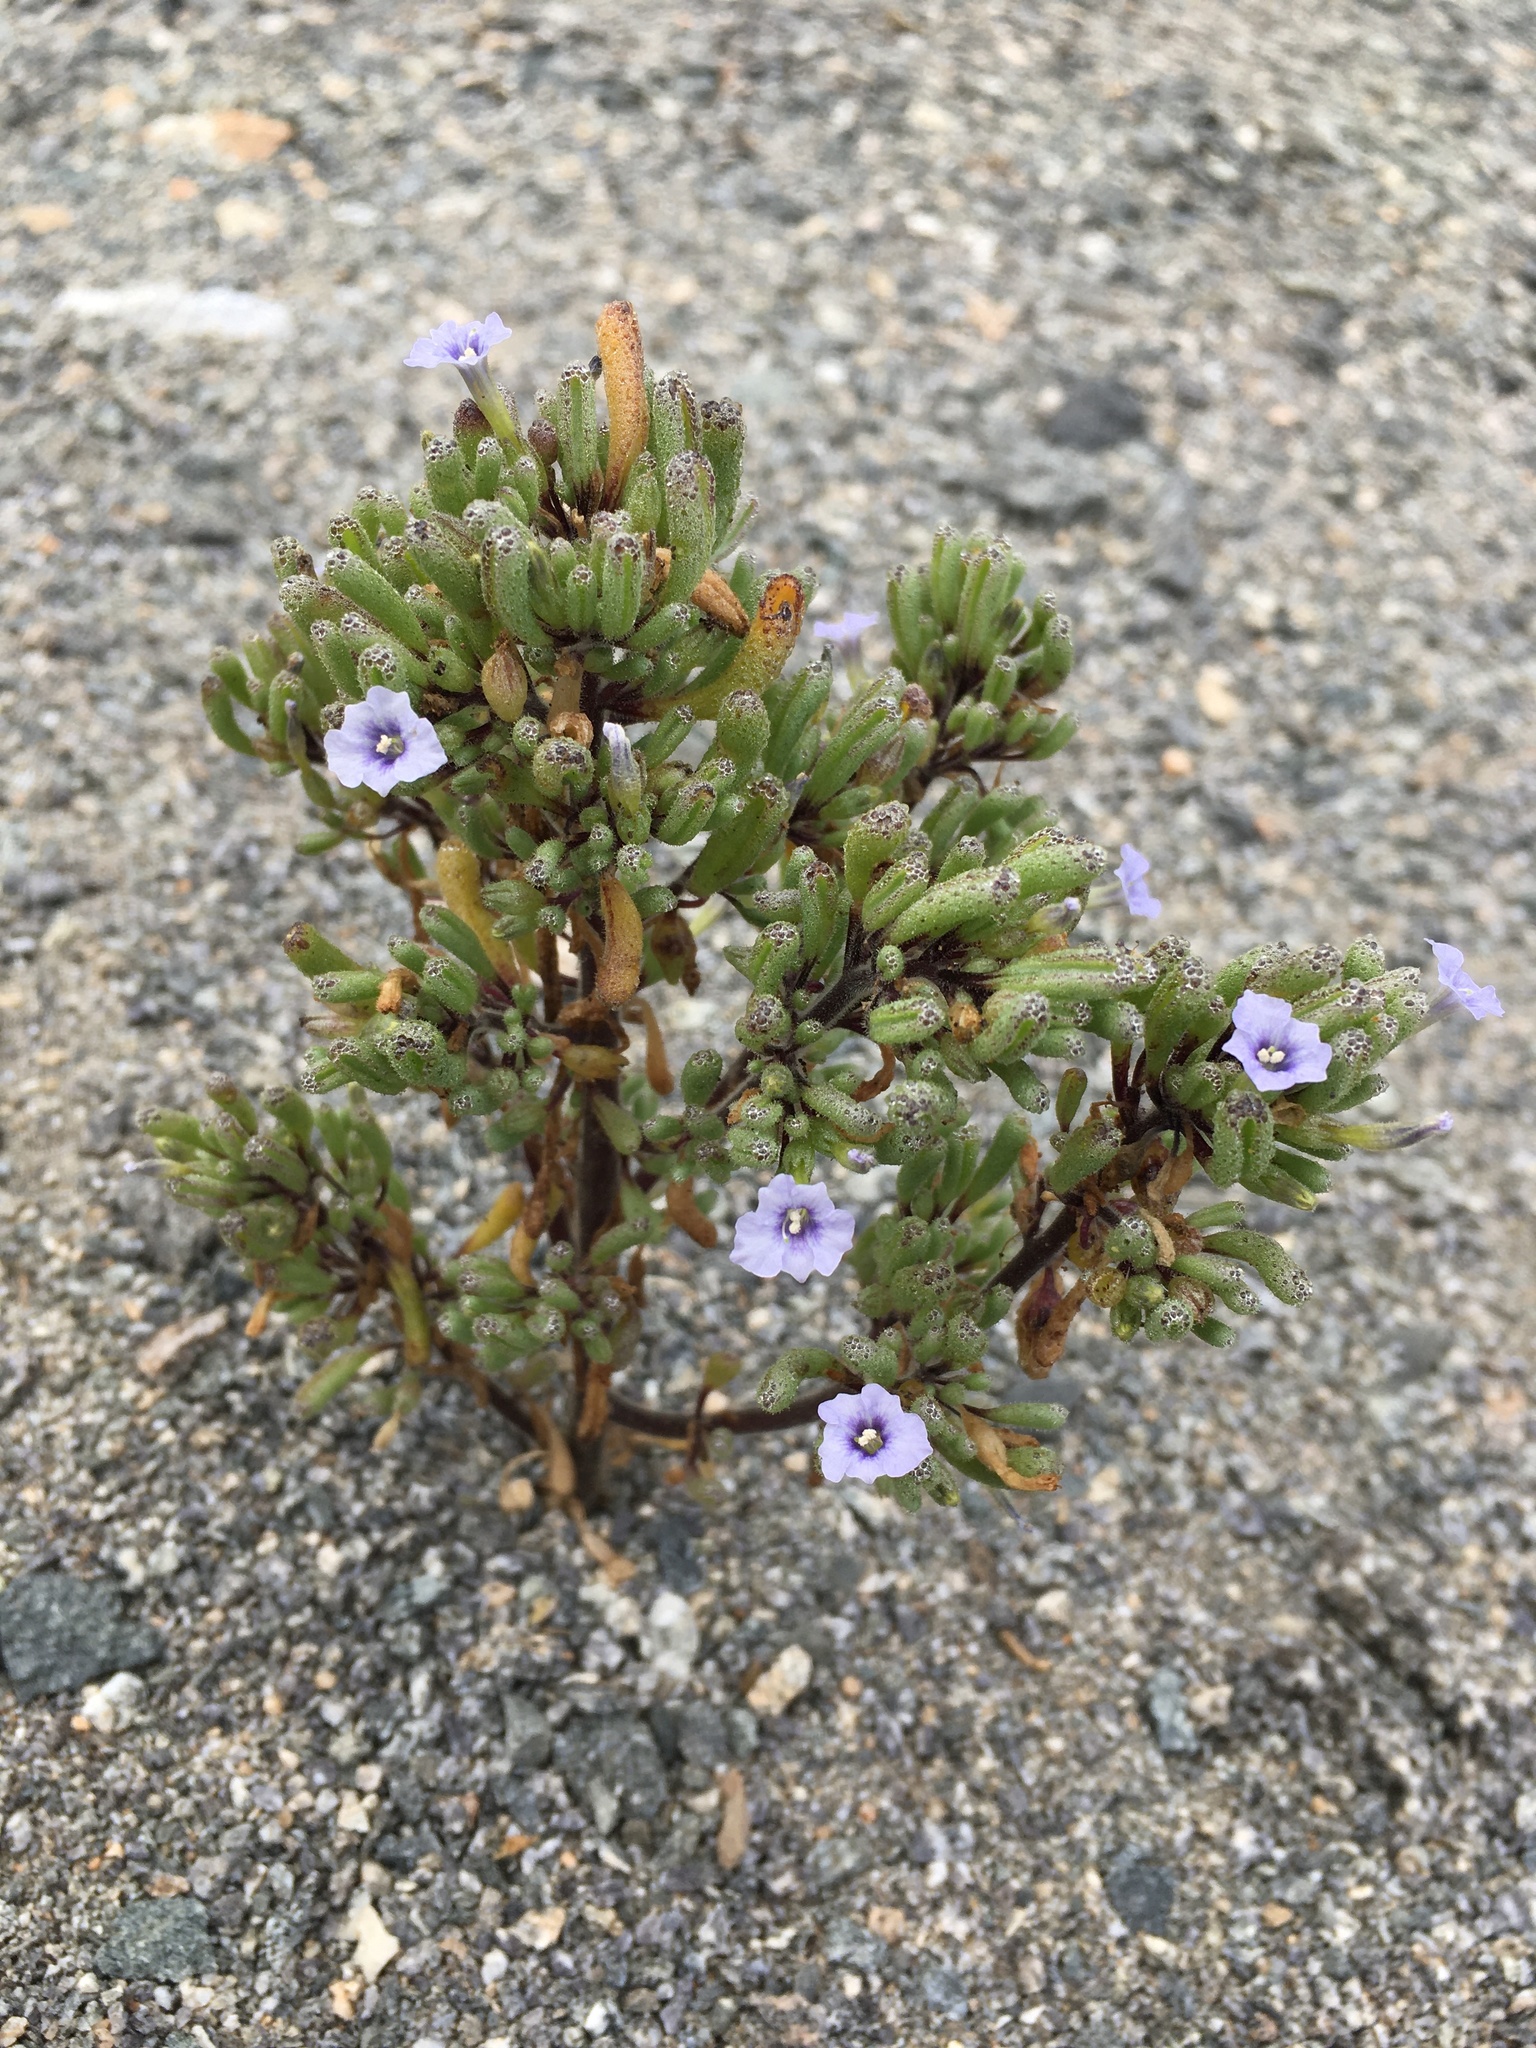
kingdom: Plantae
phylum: Tracheophyta
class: Magnoliopsida
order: Solanales
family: Solanaceae
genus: Nolana
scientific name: Nolana onoana
